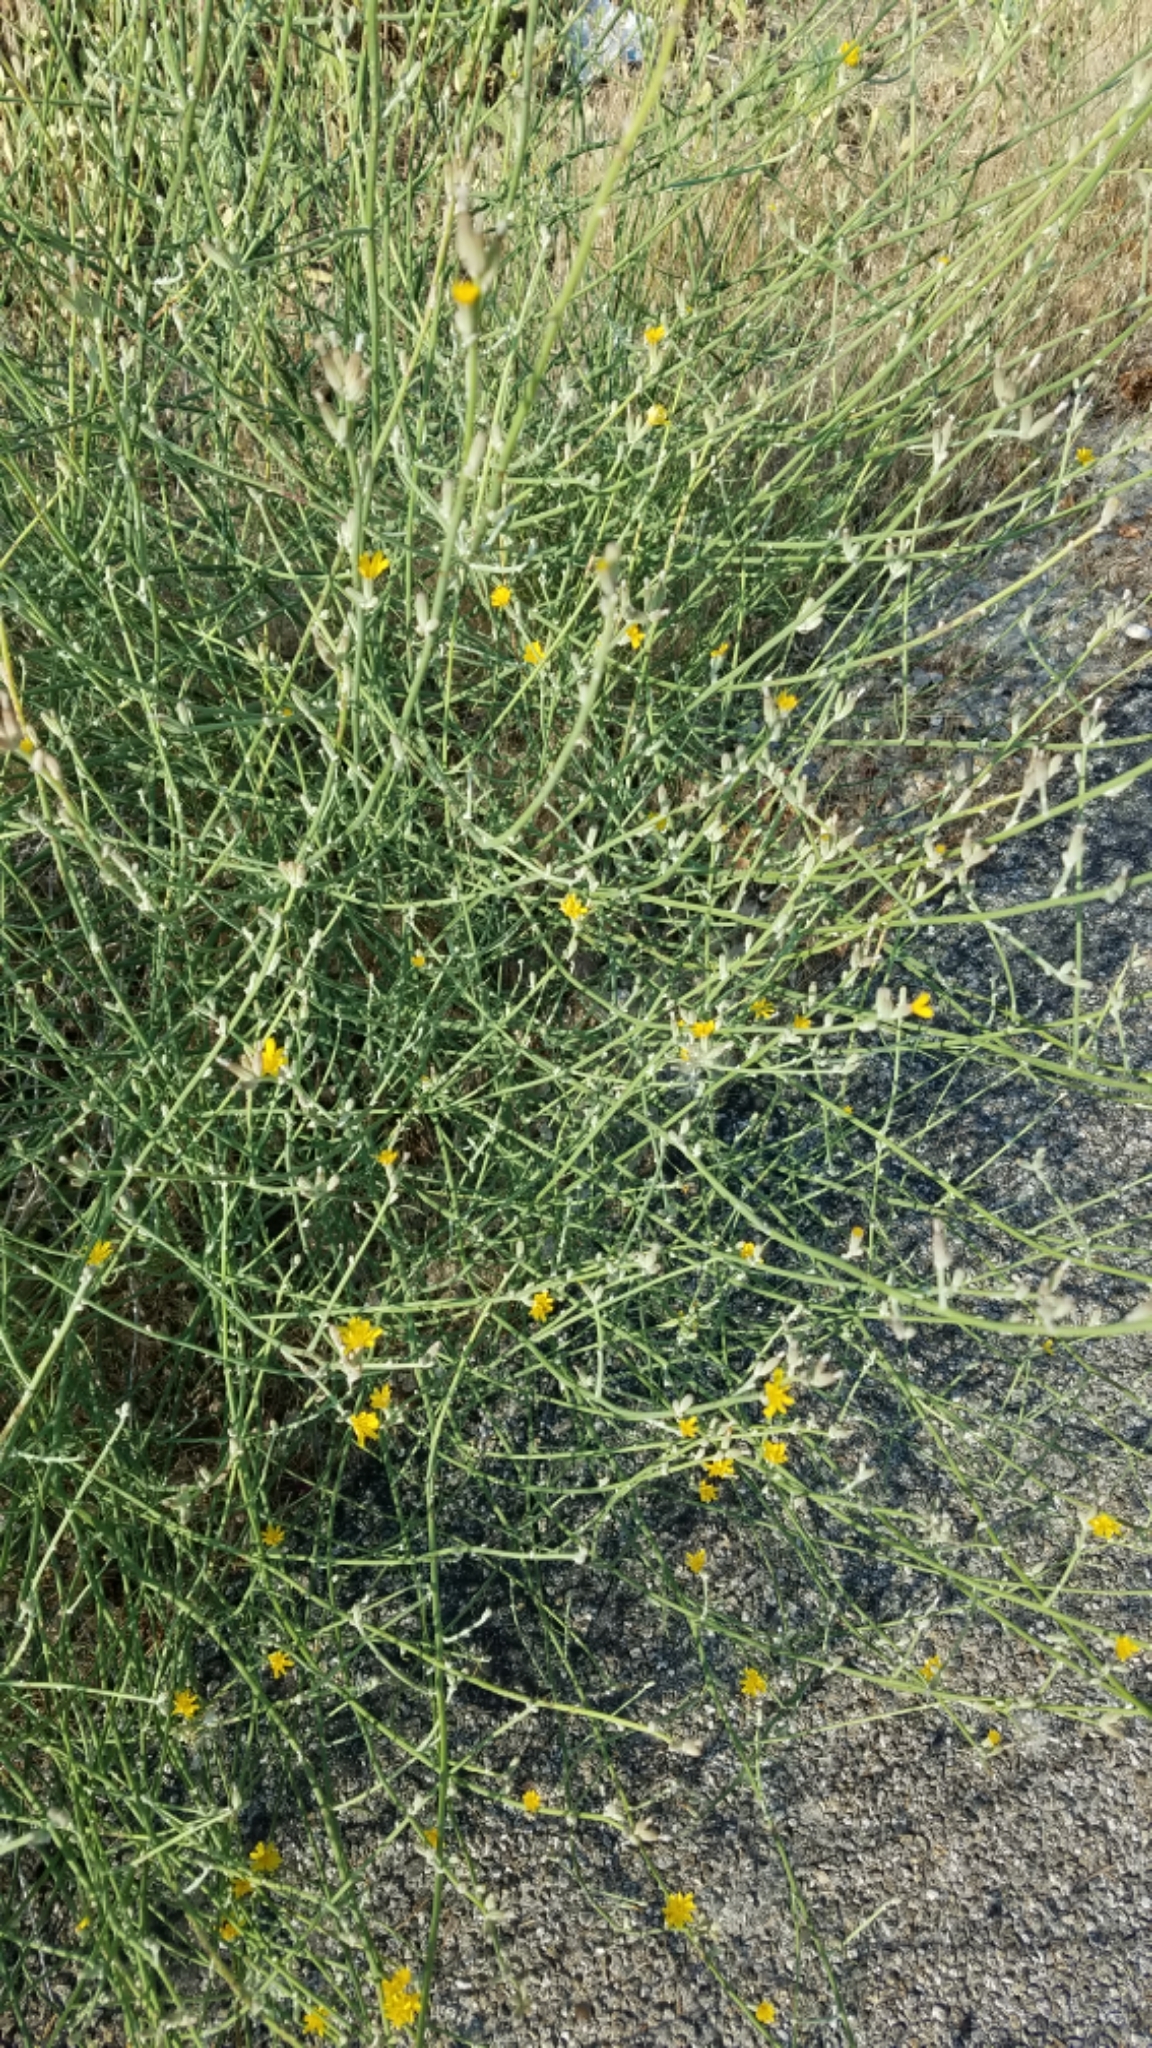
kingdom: Plantae
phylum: Tracheophyta
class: Magnoliopsida
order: Asterales
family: Asteraceae
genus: Chondrilla
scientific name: Chondrilla juncea
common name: Skeleton weed
